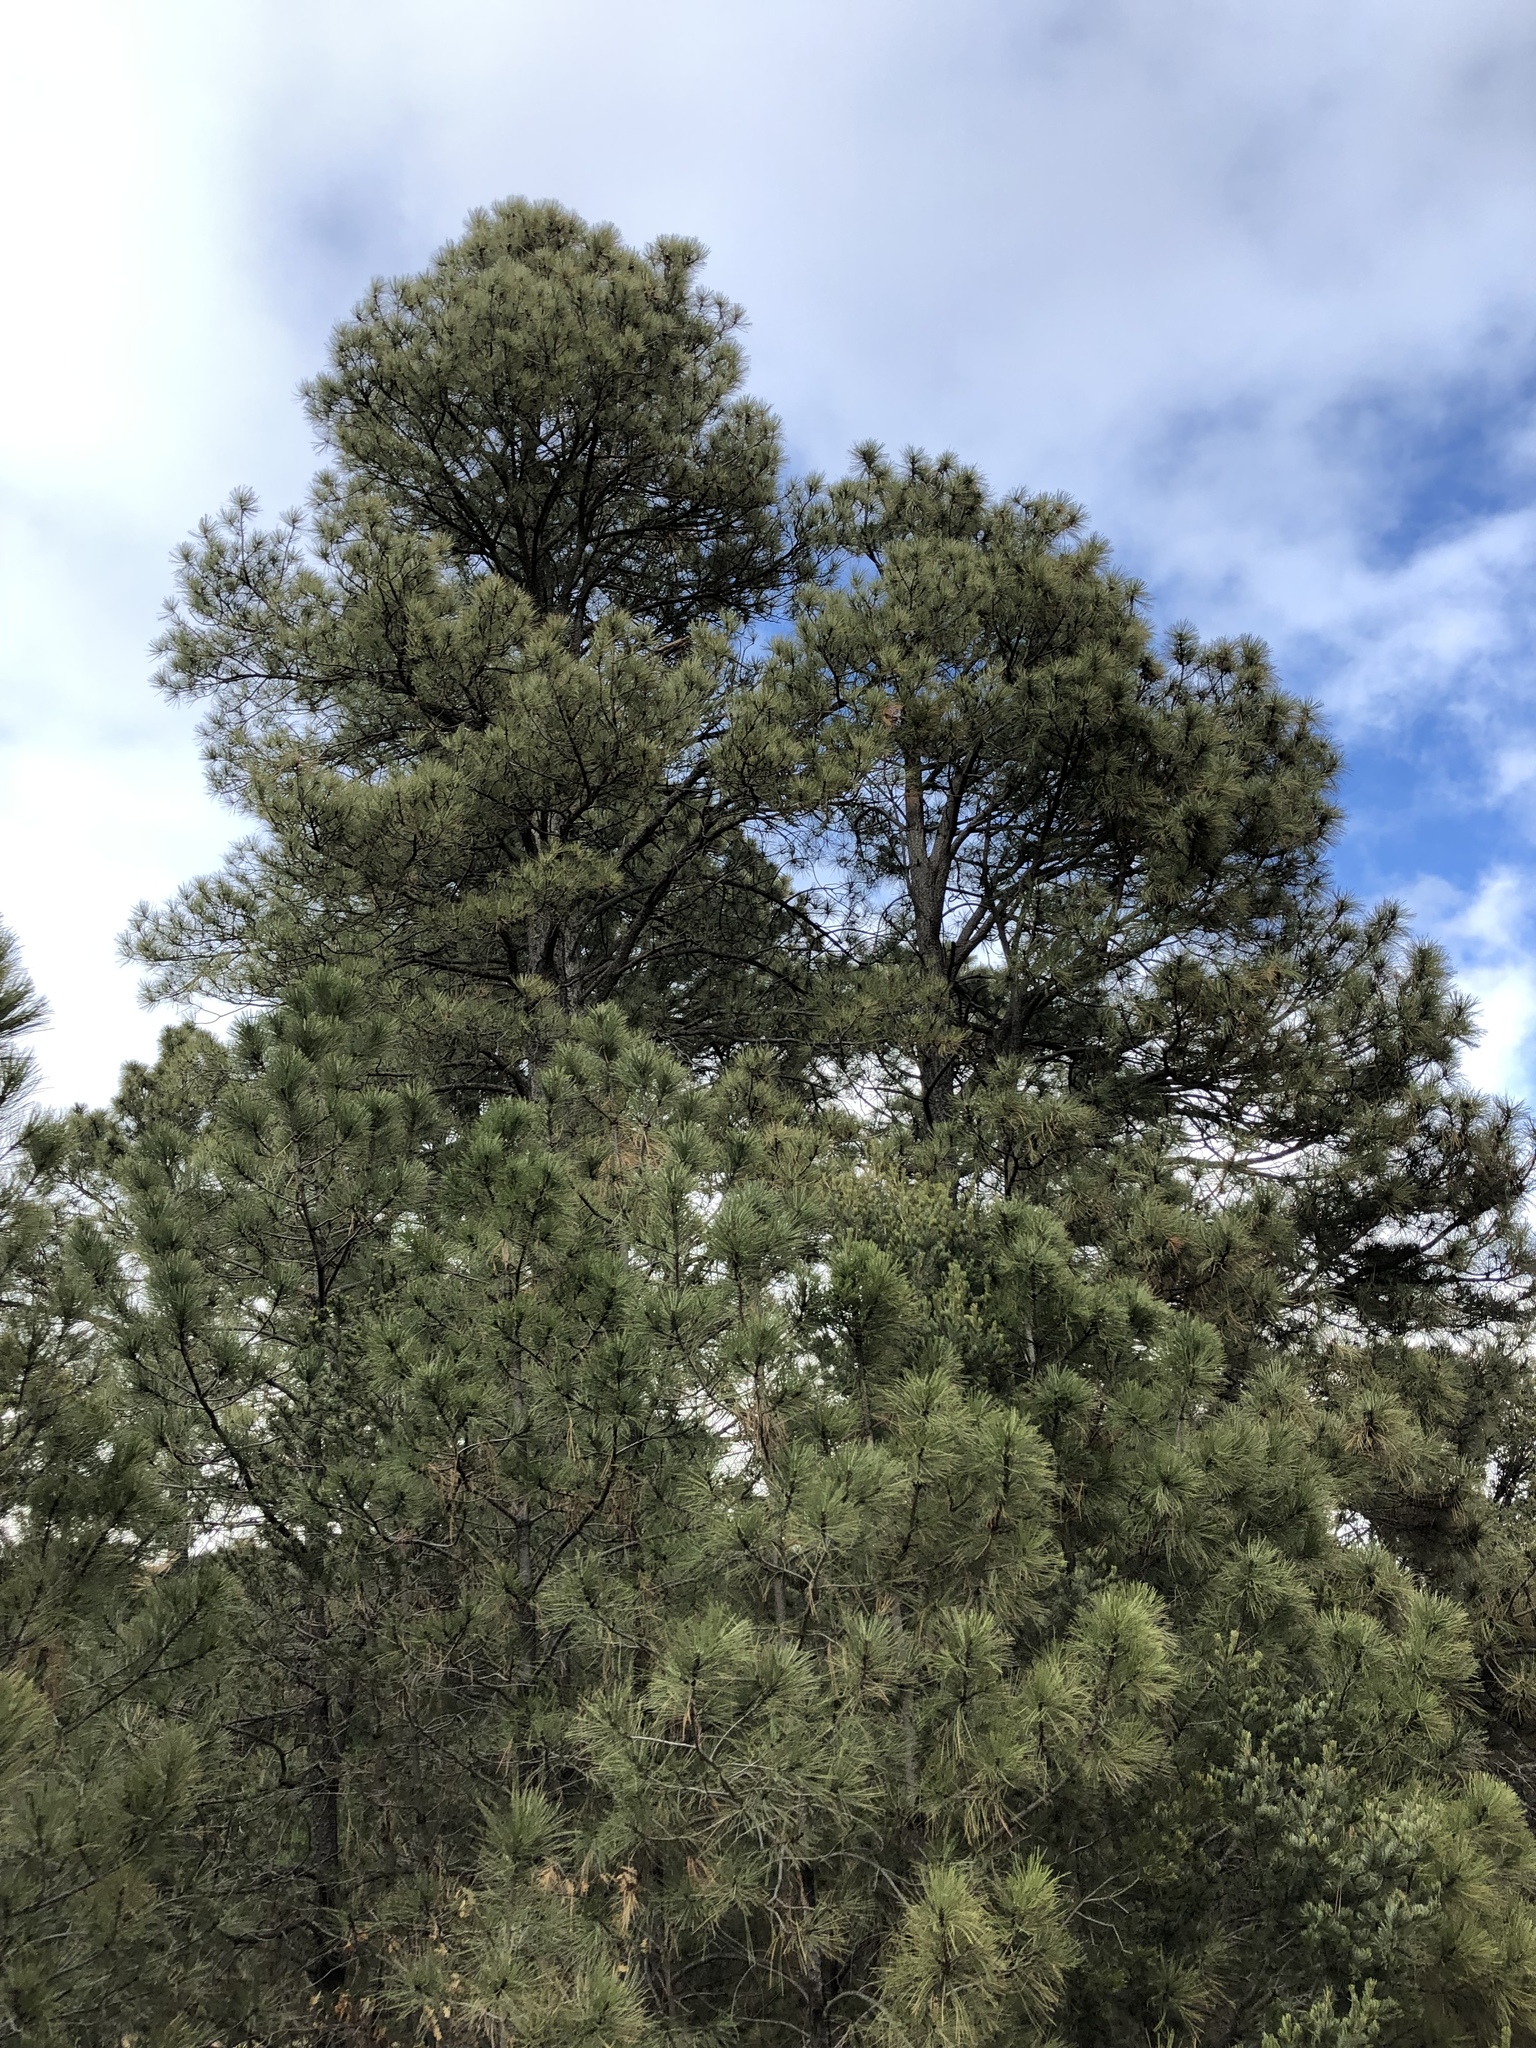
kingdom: Plantae
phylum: Tracheophyta
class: Pinopsida
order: Pinales
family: Pinaceae
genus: Pinus
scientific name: Pinus ponderosa
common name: Western yellow-pine
